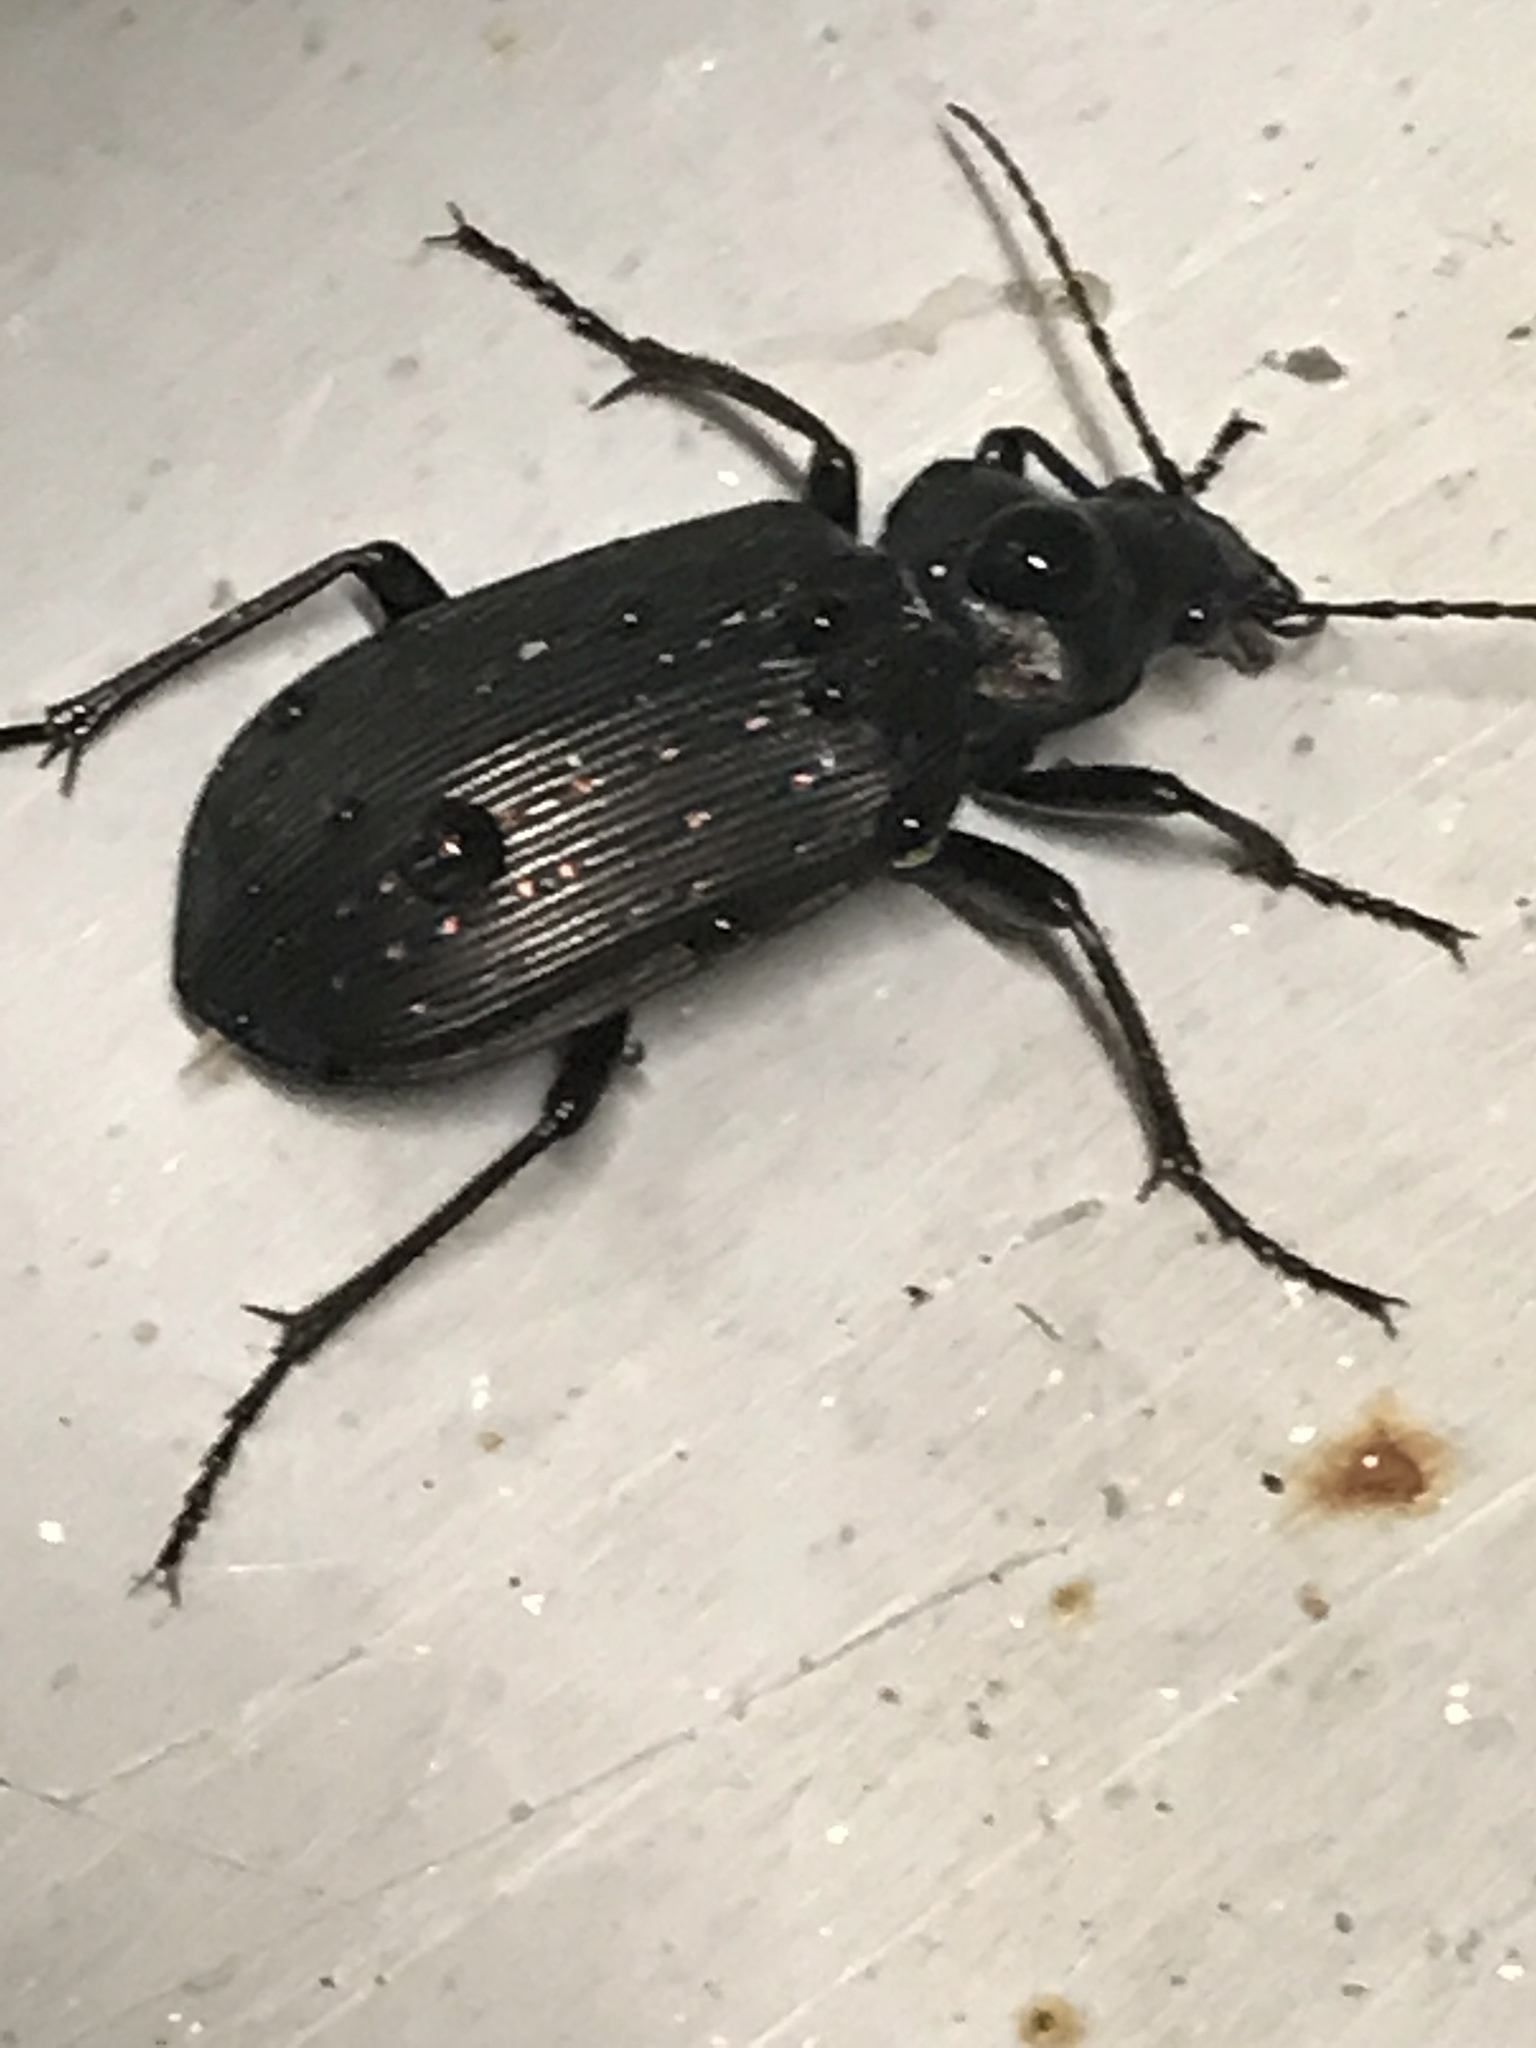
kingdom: Animalia
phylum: Arthropoda
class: Insecta
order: Coleoptera
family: Carabidae
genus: Calosoma
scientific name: Calosoma sayi
